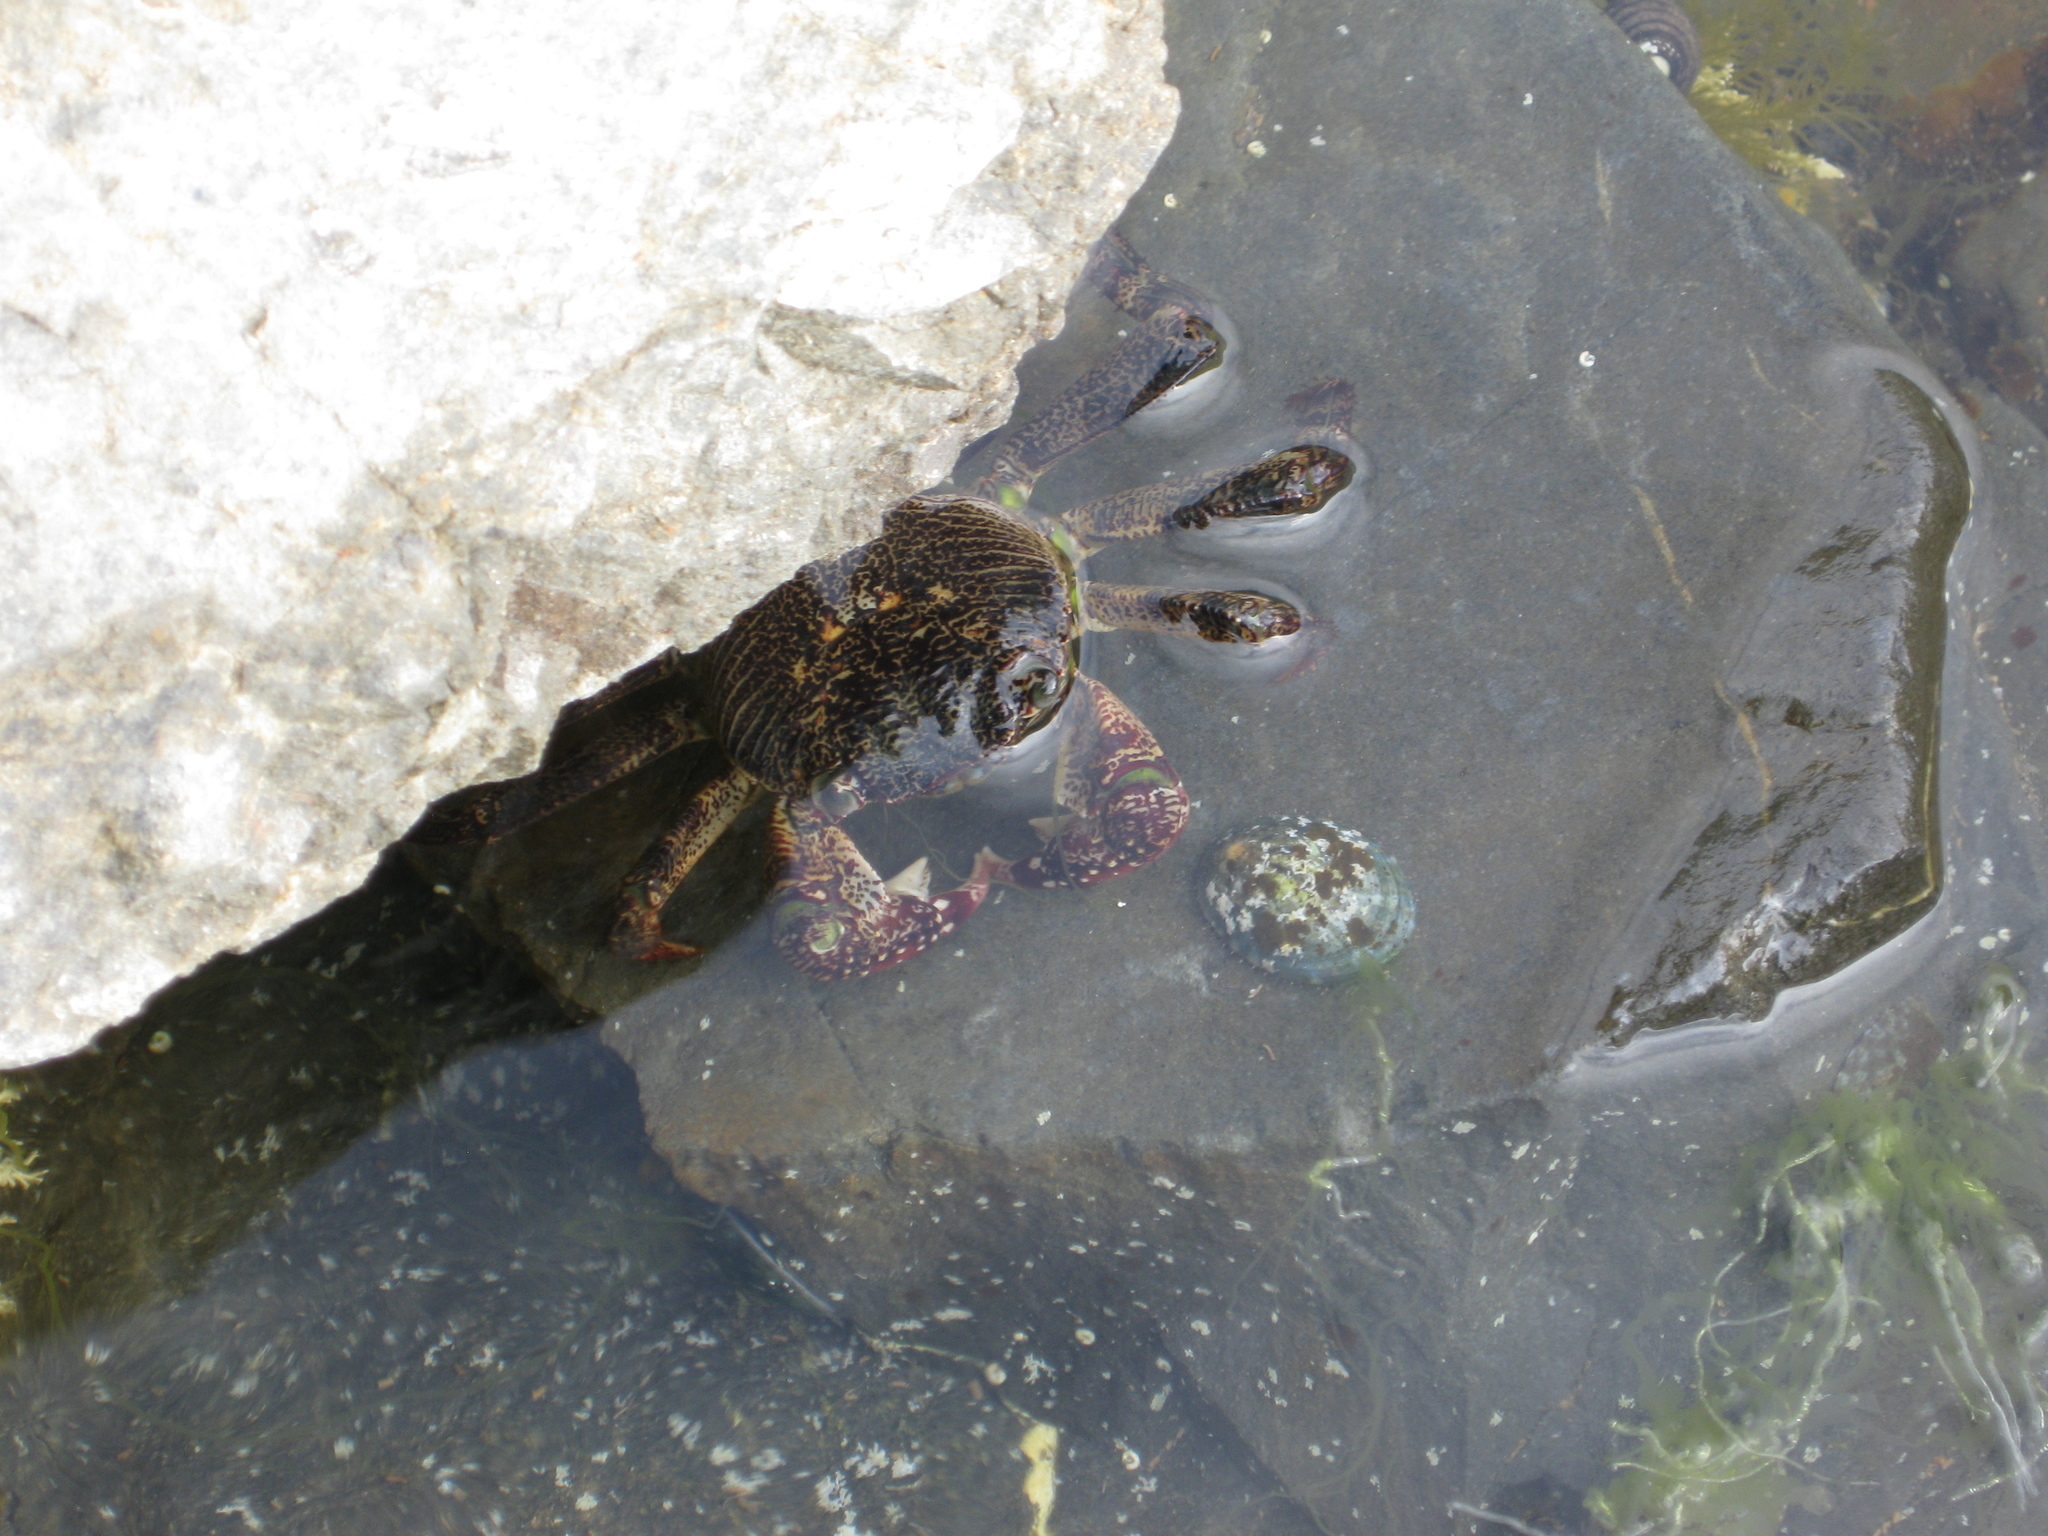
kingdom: Animalia
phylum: Arthropoda
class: Malacostraca
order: Decapoda
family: Grapsidae
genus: Leptograpsus
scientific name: Leptograpsus variegatus
